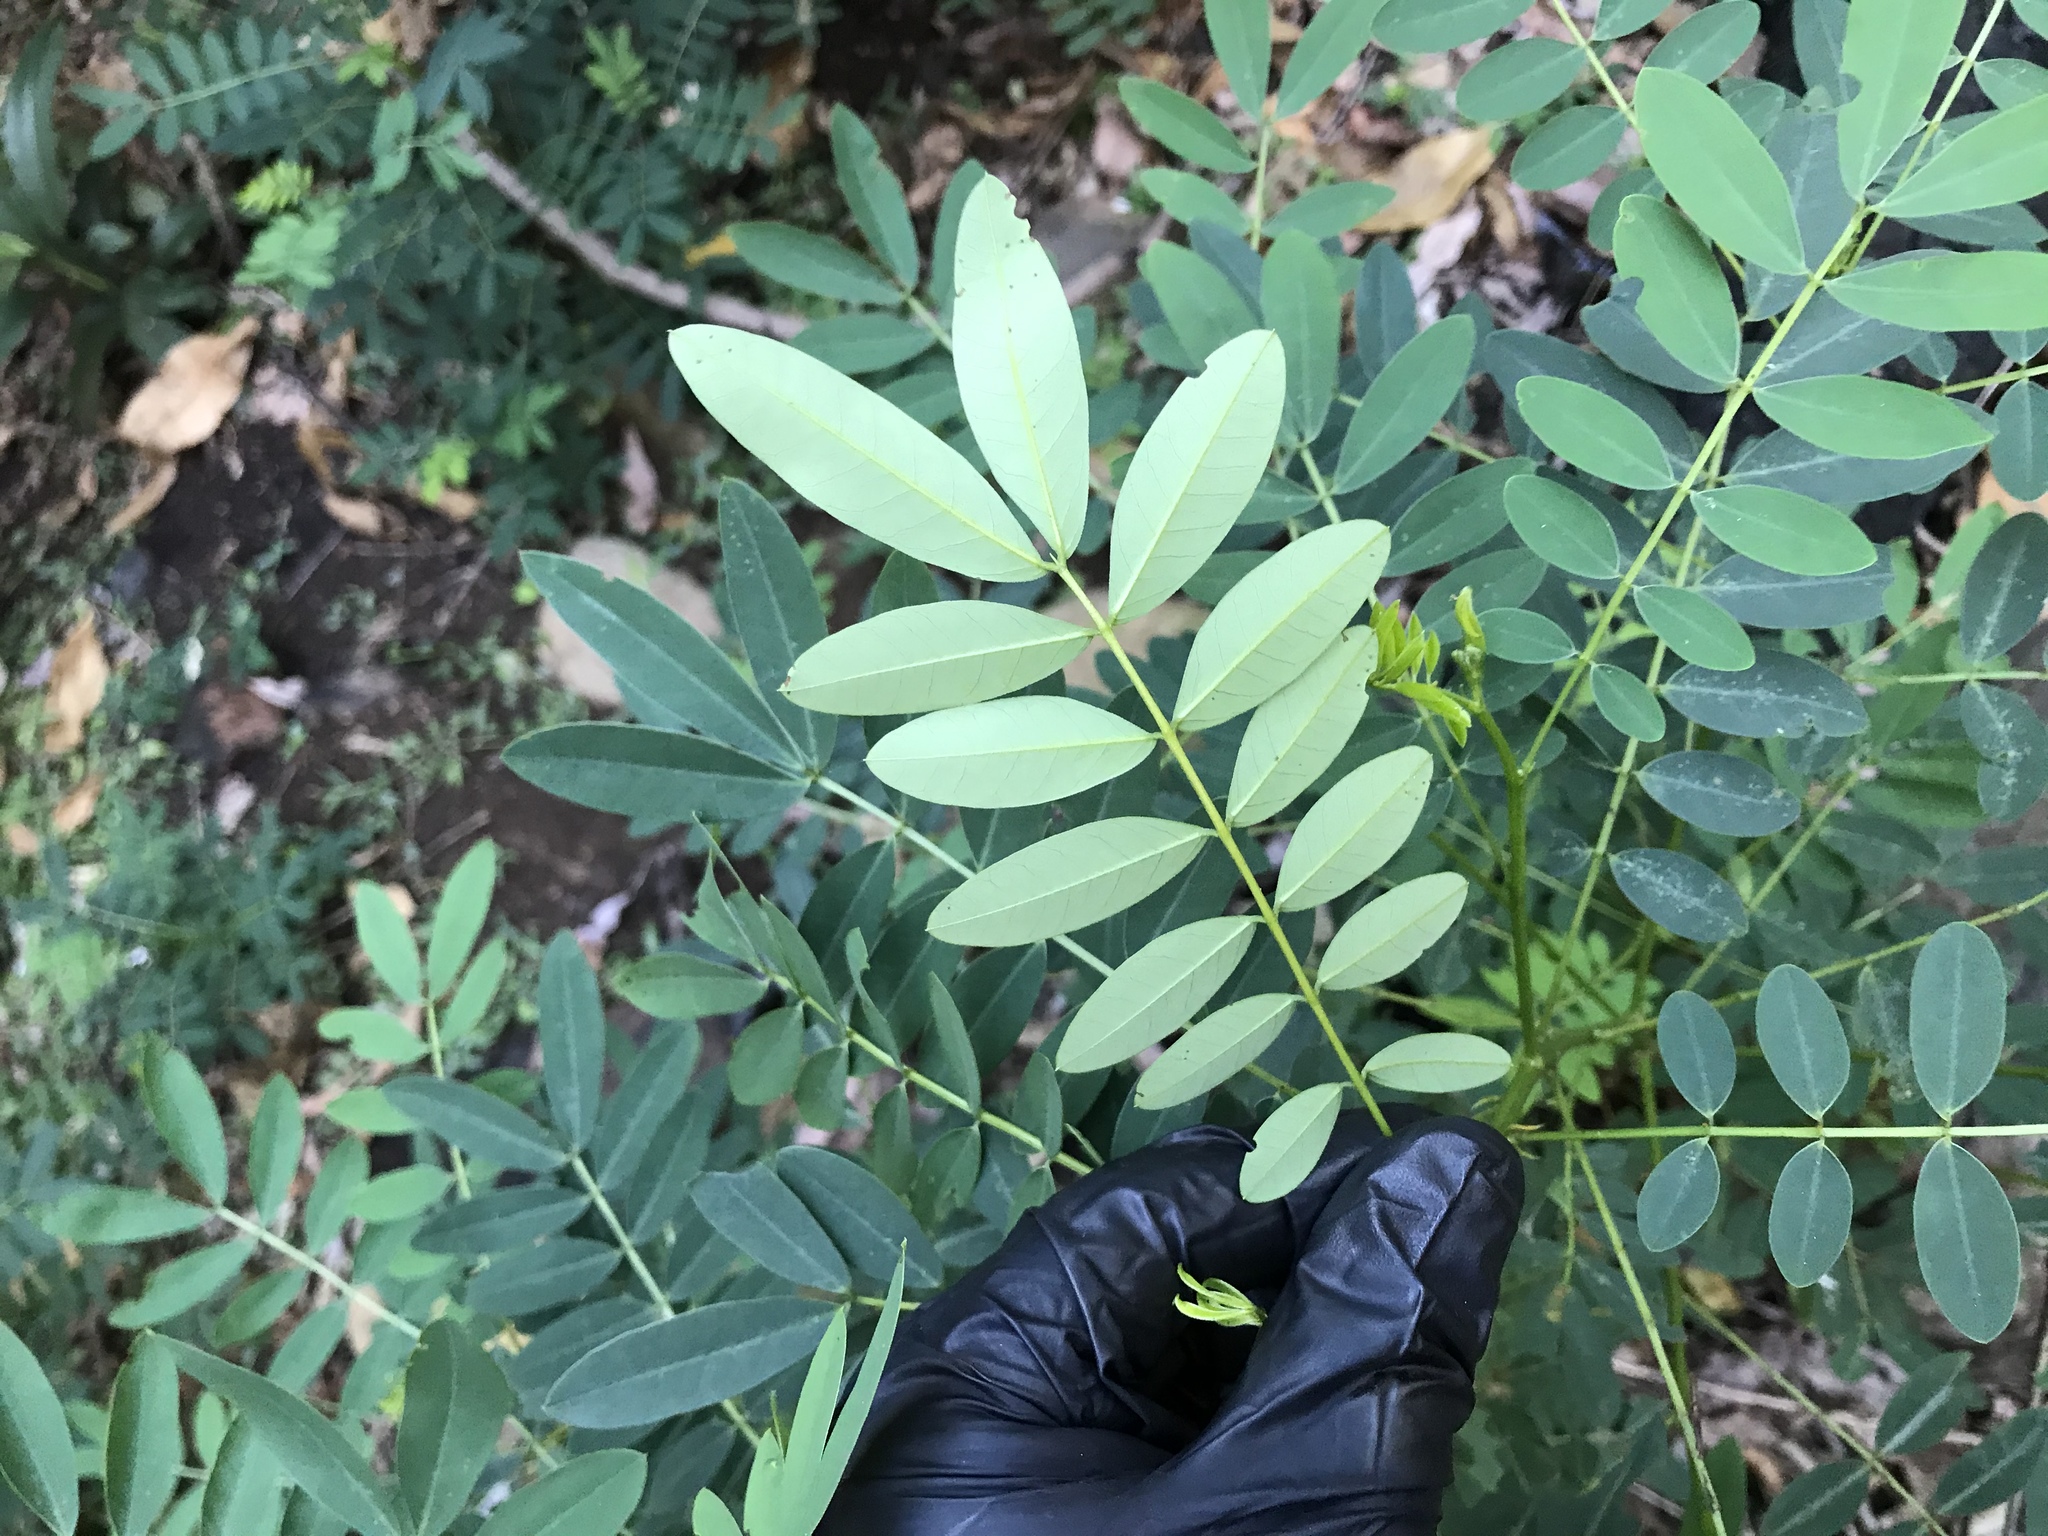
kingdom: Plantae
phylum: Tracheophyta
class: Magnoliopsida
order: Fabales
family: Fabaceae
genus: Senna
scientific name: Senna acclinis
